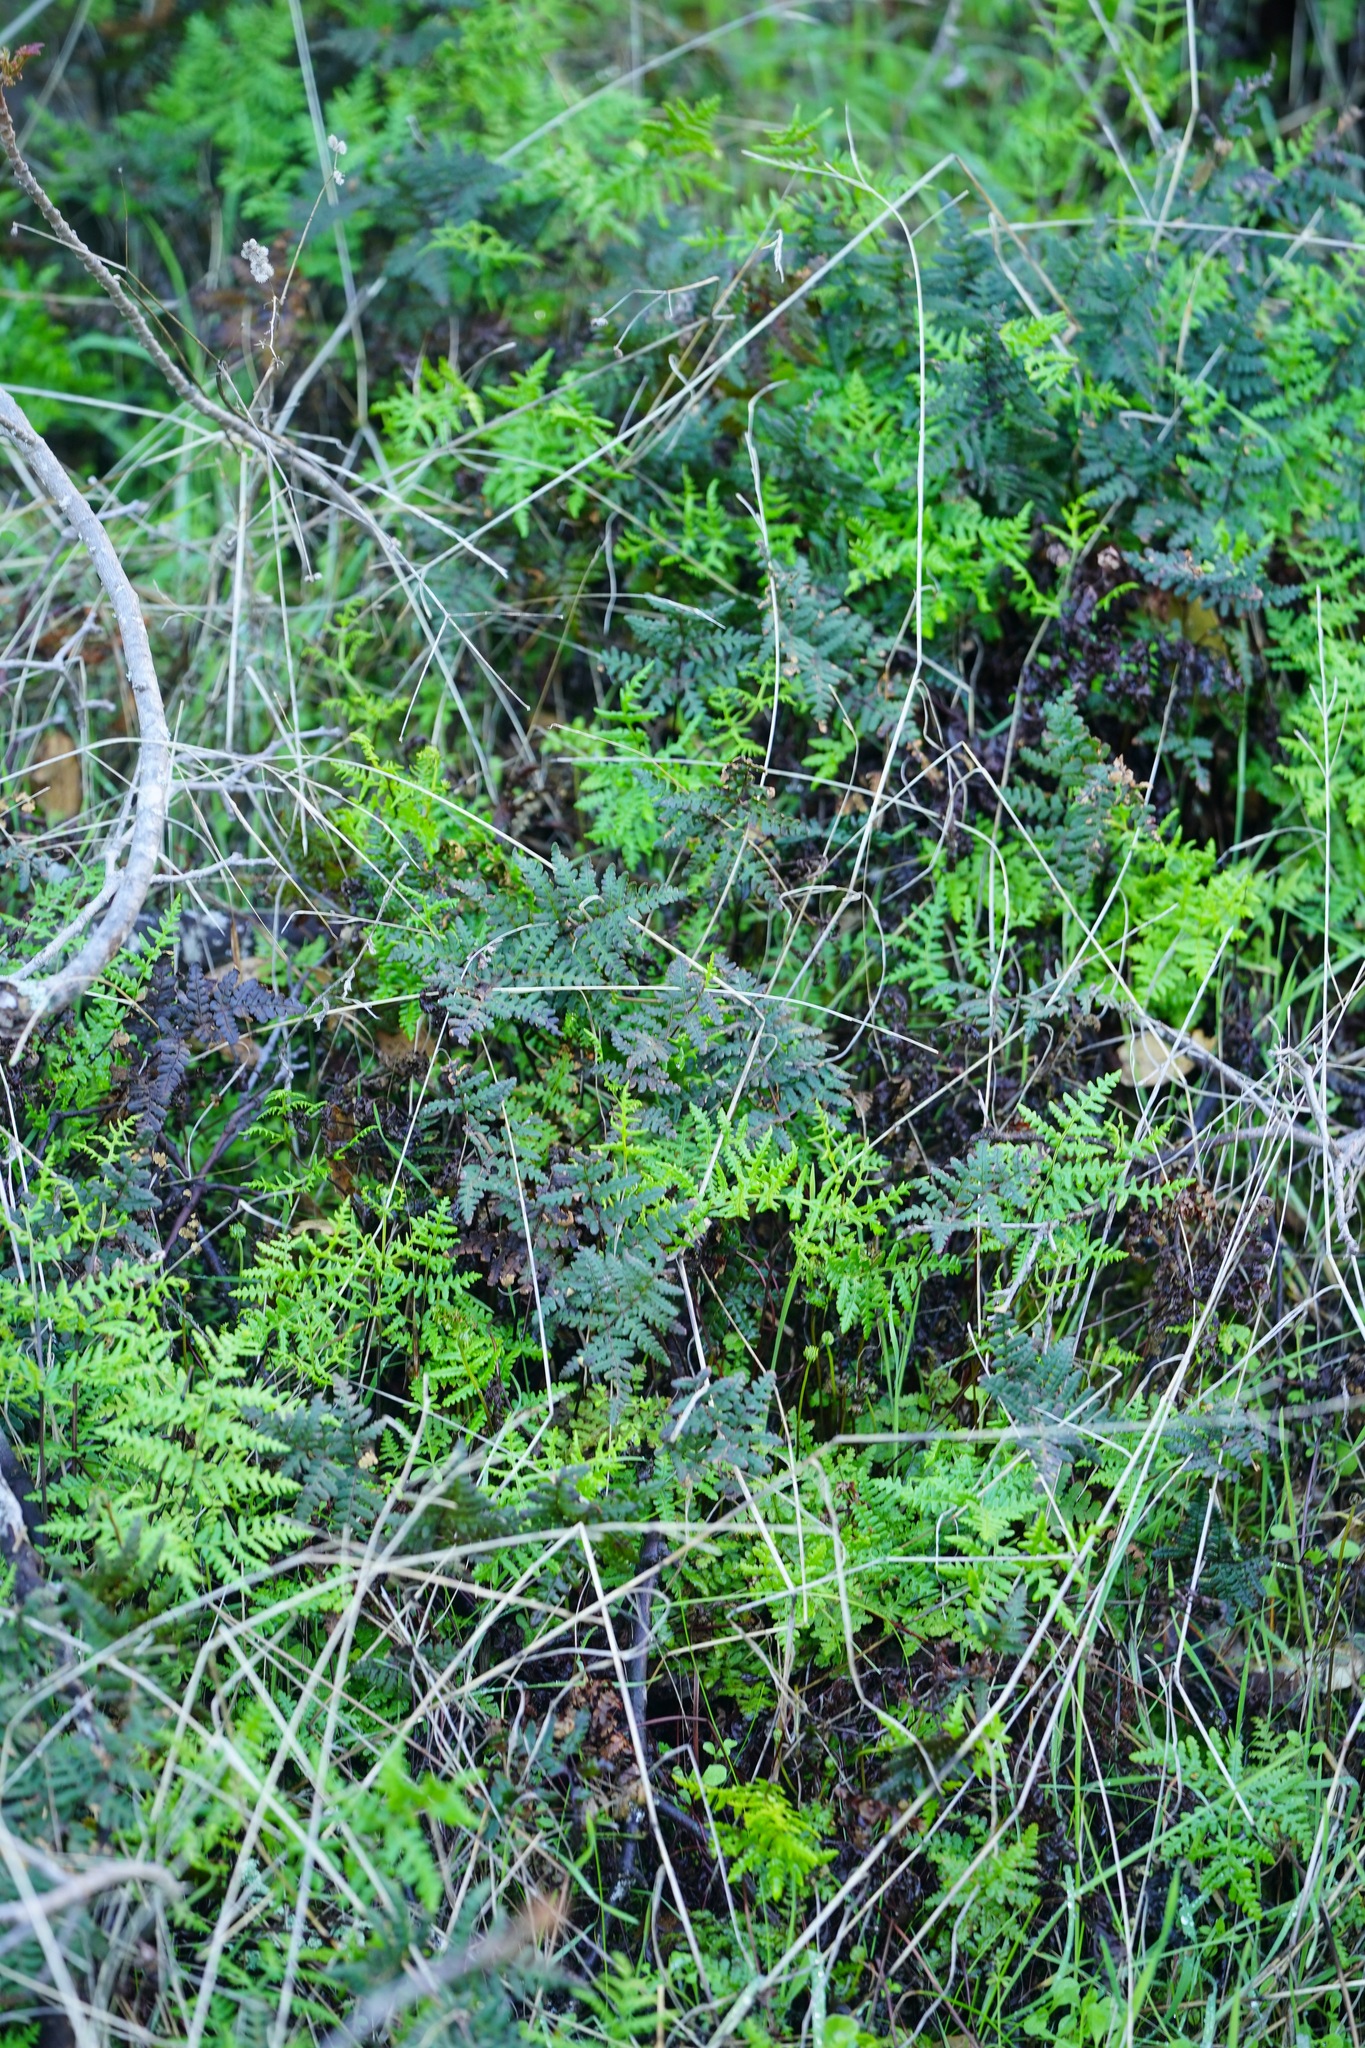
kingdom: Plantae
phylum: Tracheophyta
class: Polypodiopsida
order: Polypodiales
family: Pteridaceae
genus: Pentagramma
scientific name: Pentagramma triangularis
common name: Gold fern
